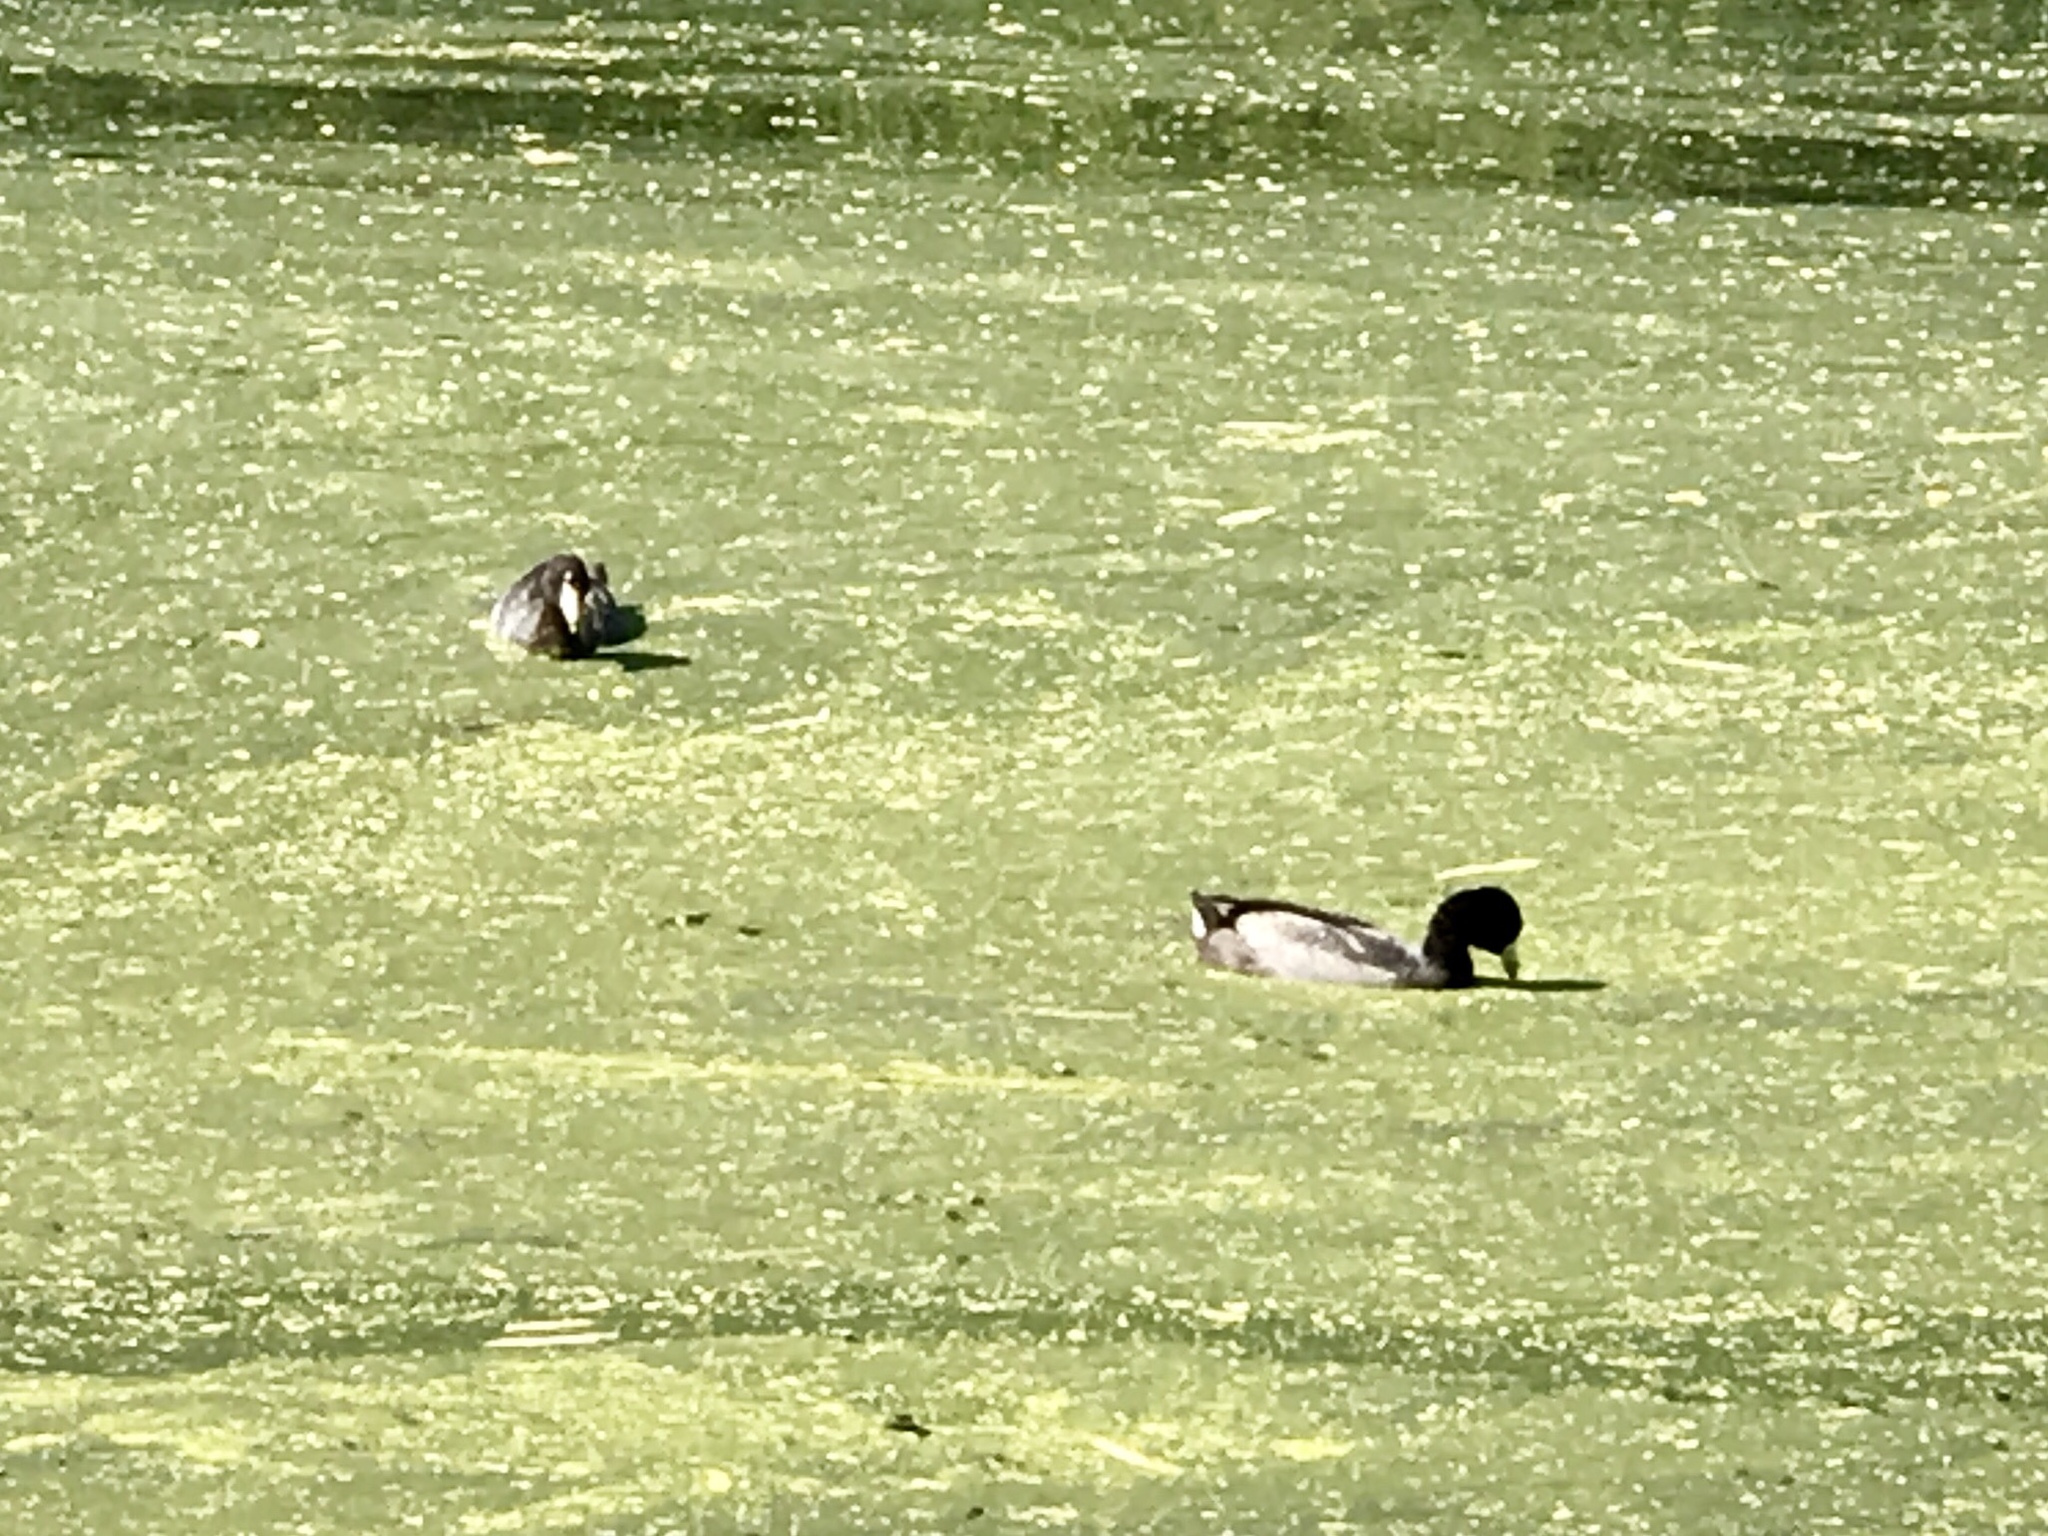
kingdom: Animalia
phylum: Chordata
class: Aves
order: Gruiformes
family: Rallidae
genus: Fulica
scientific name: Fulica americana
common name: American coot
